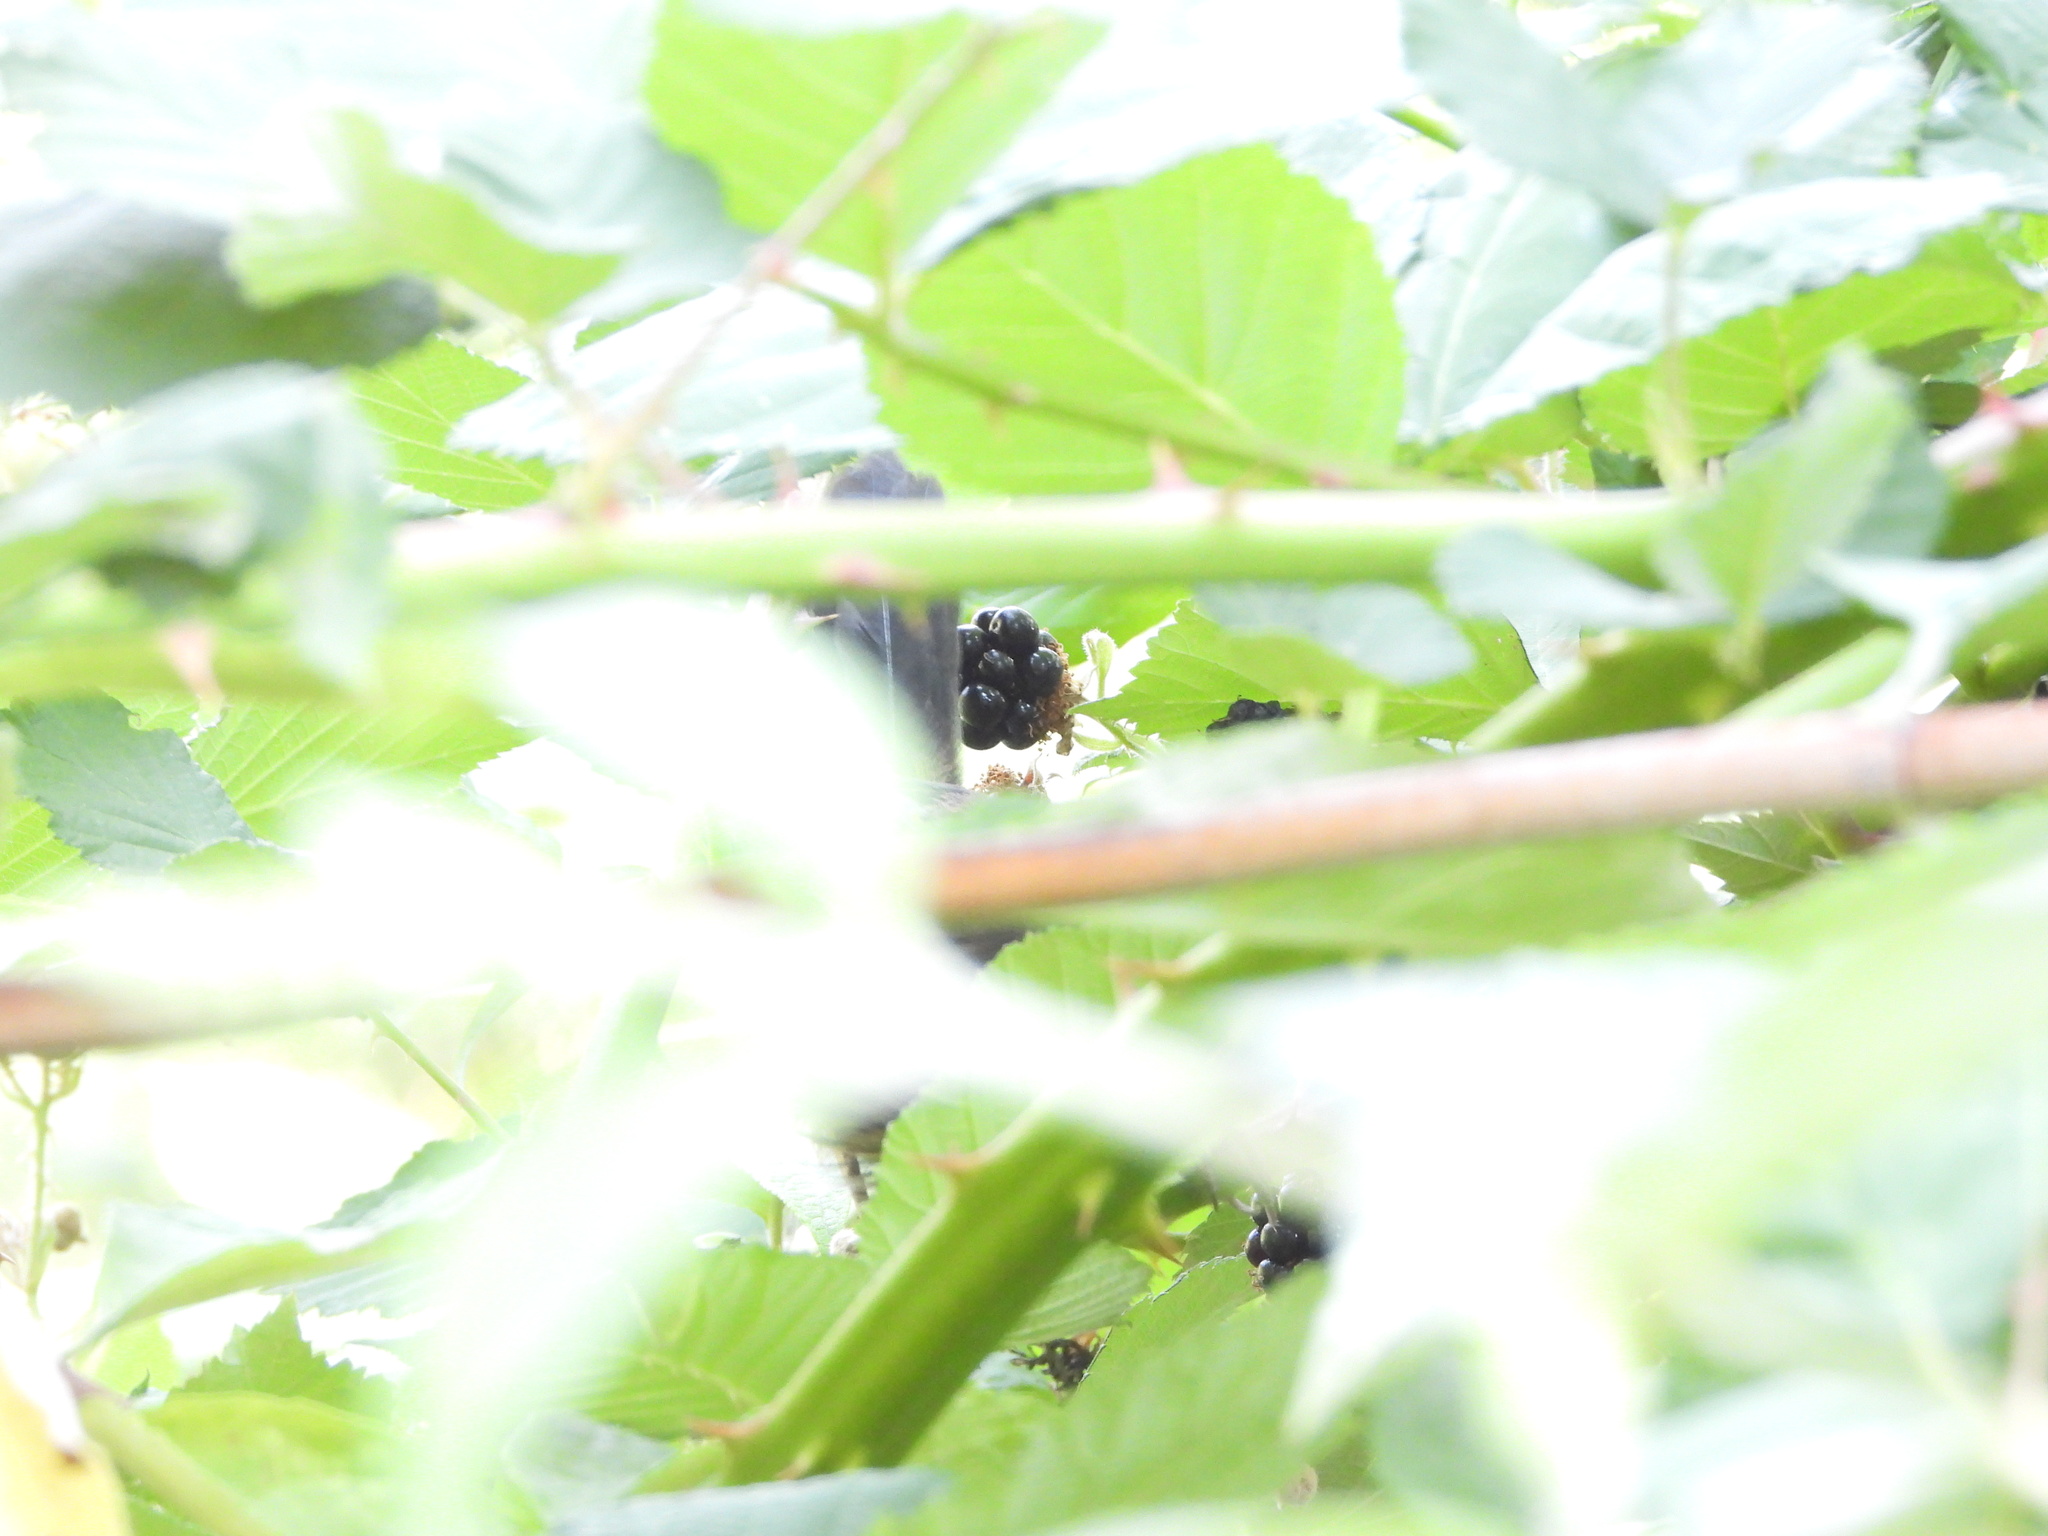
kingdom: Animalia
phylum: Chordata
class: Aves
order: Passeriformes
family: Passerellidae
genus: Pipilo
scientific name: Pipilo maculatus
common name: Spotted towhee
